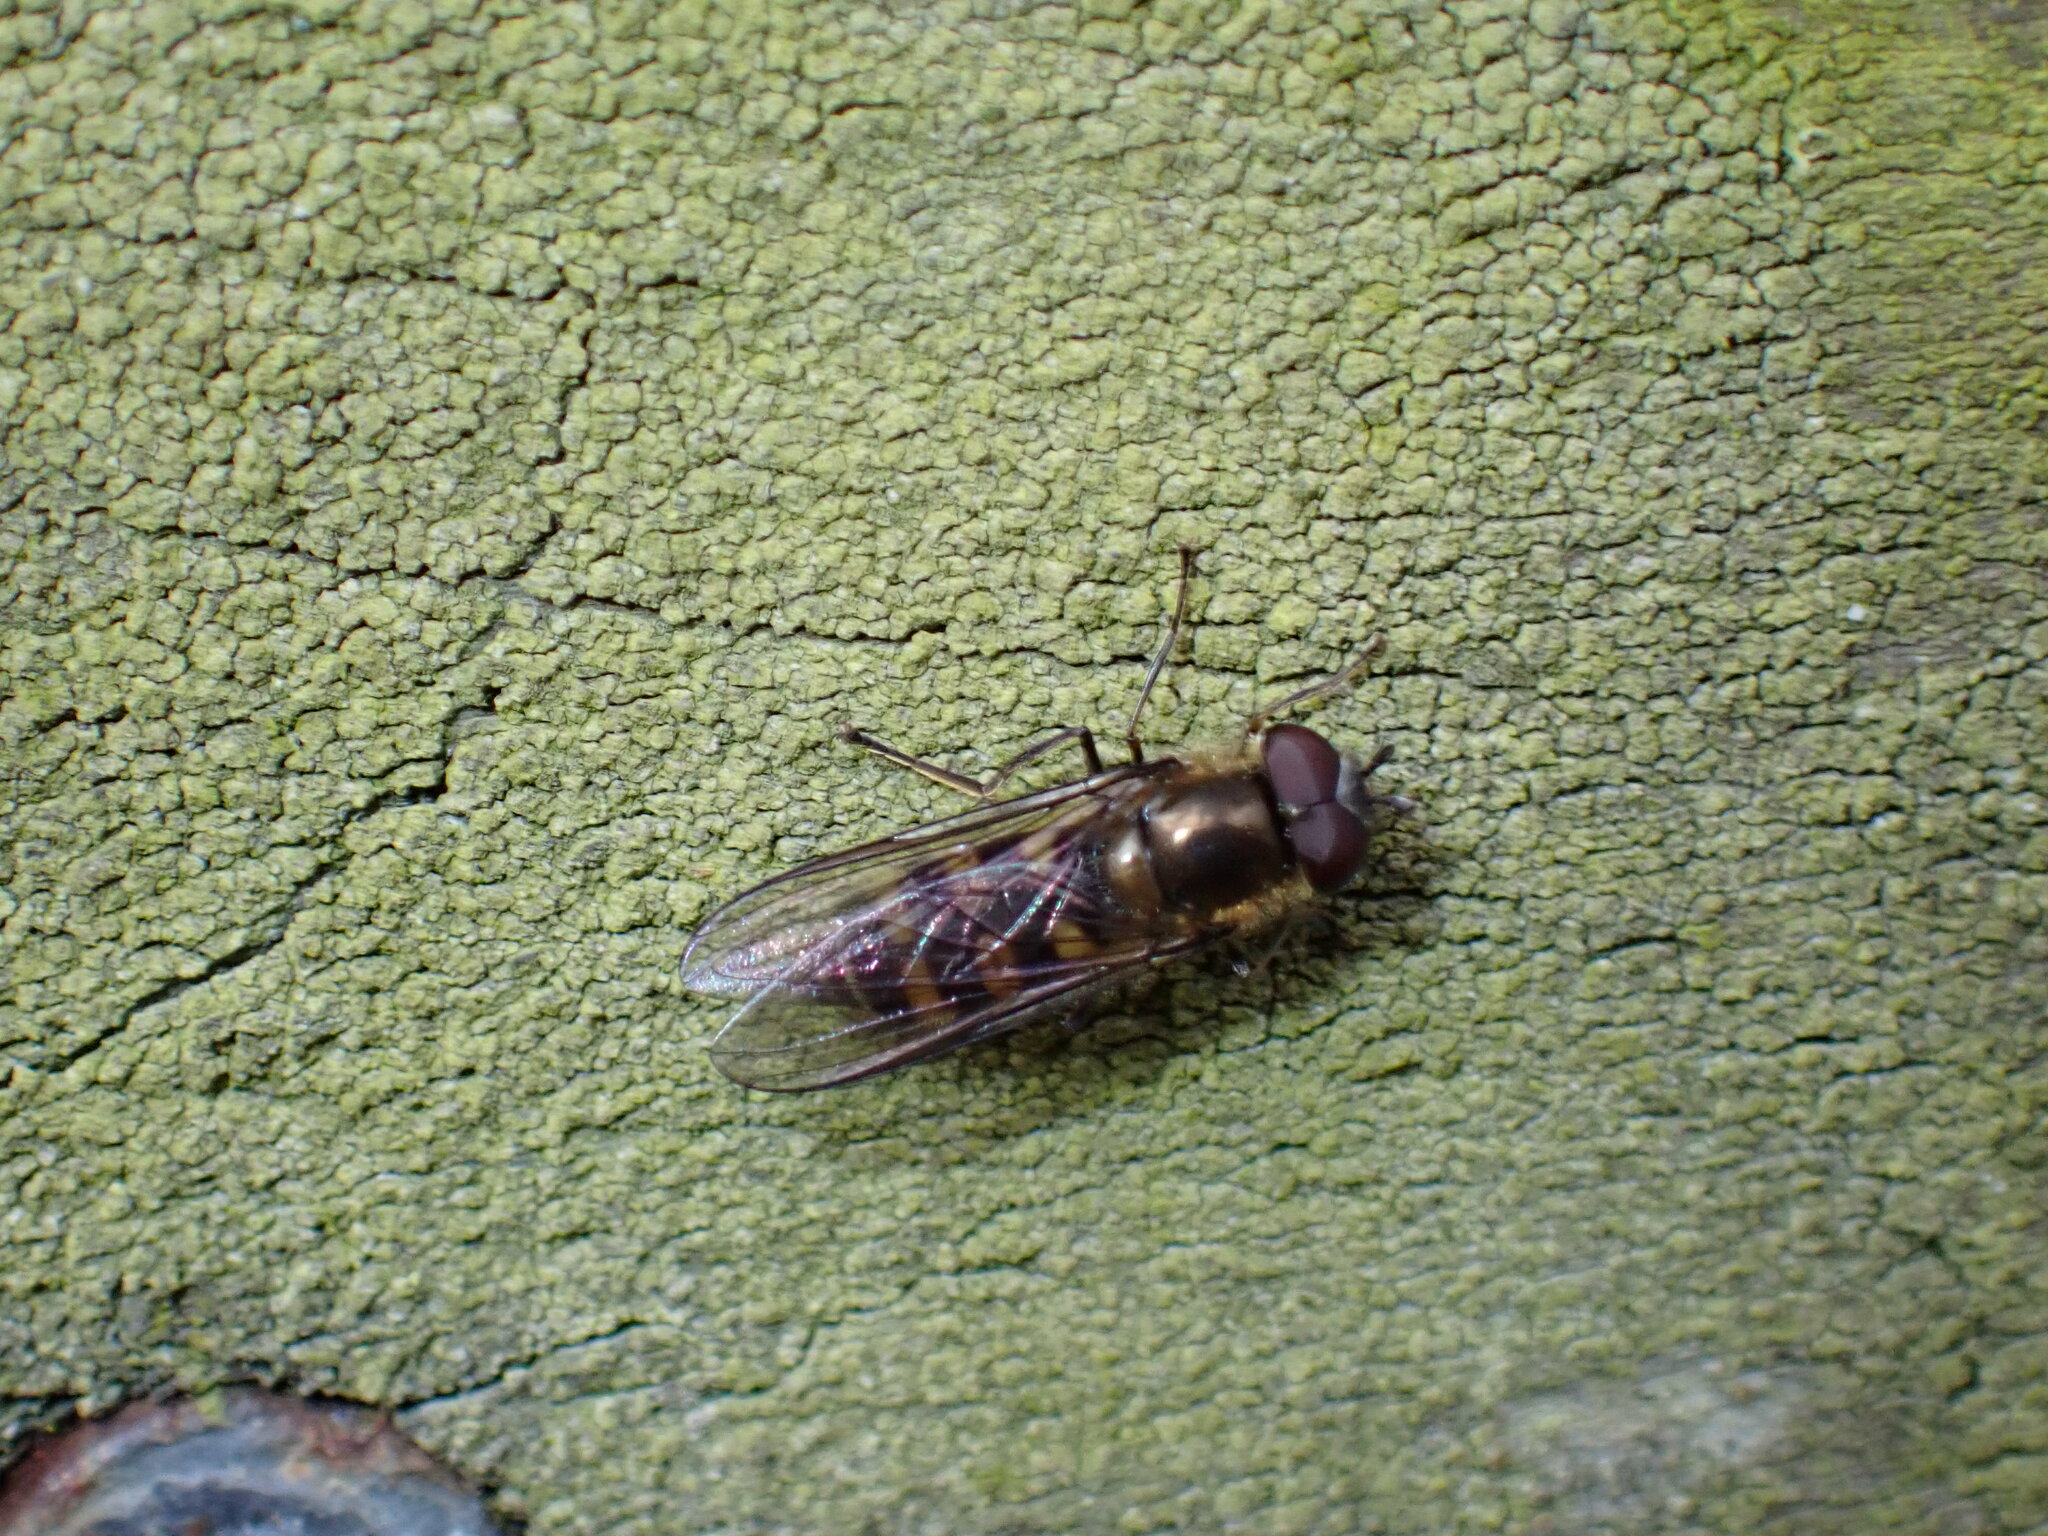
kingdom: Animalia
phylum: Arthropoda
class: Insecta
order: Diptera
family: Syrphidae
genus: Melangyna
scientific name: Melangyna lasiophthalma
